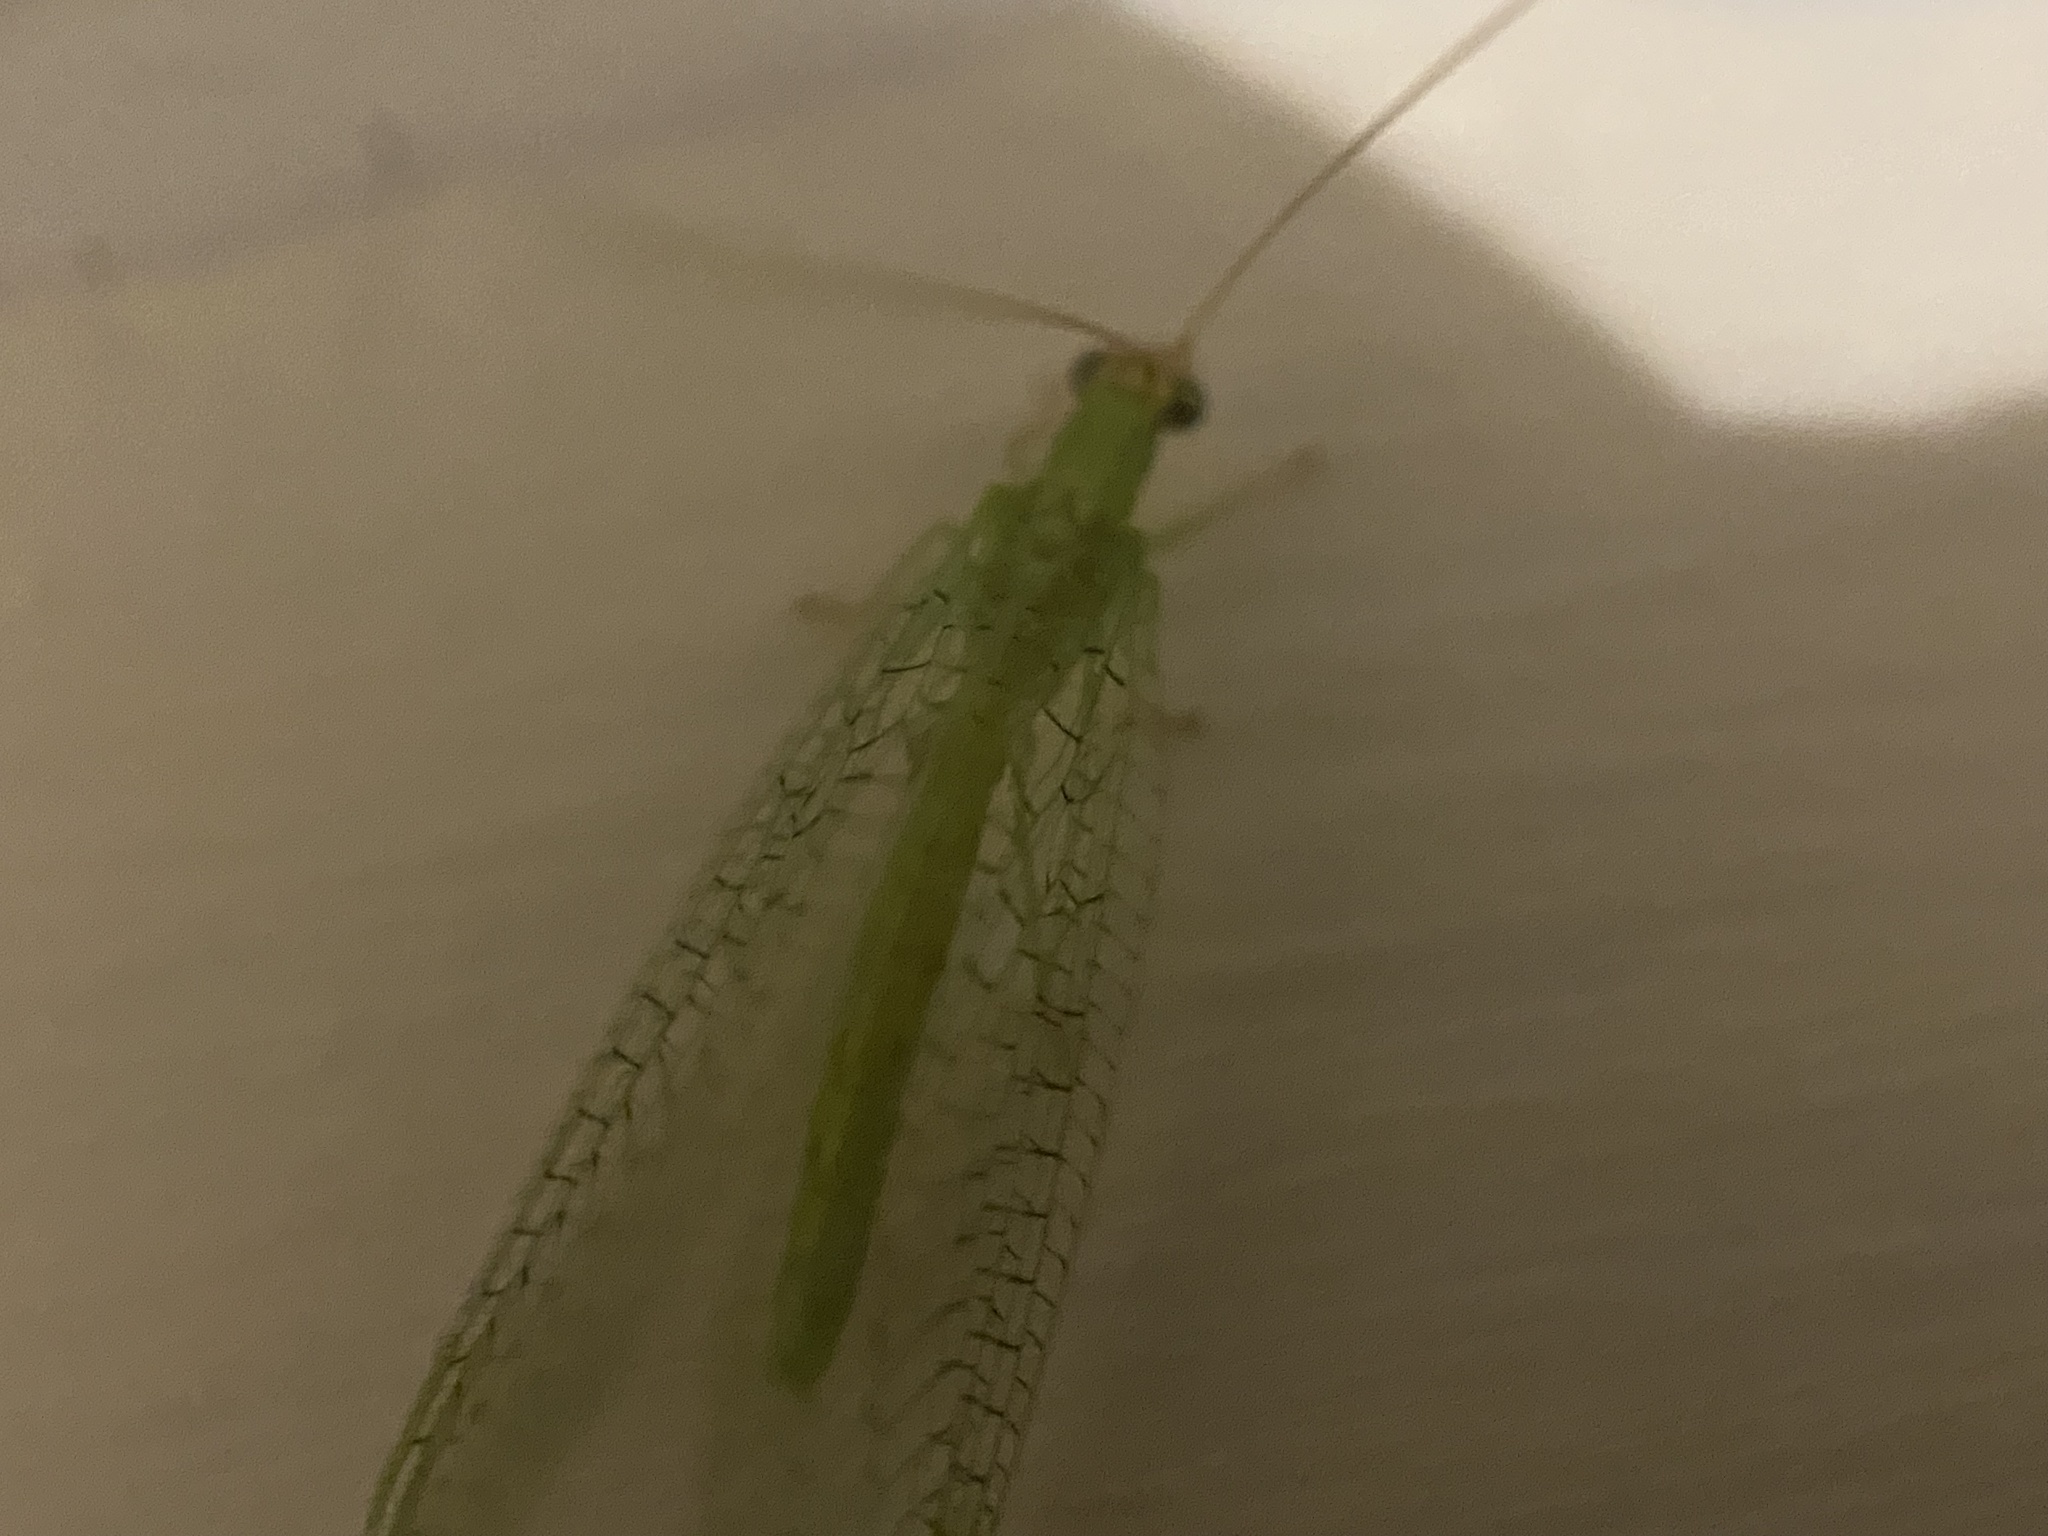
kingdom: Animalia
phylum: Arthropoda
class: Insecta
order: Neuroptera
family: Chrysopidae
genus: Chrysopa
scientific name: Chrysopa oculata
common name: Golden-eyed lacewing
